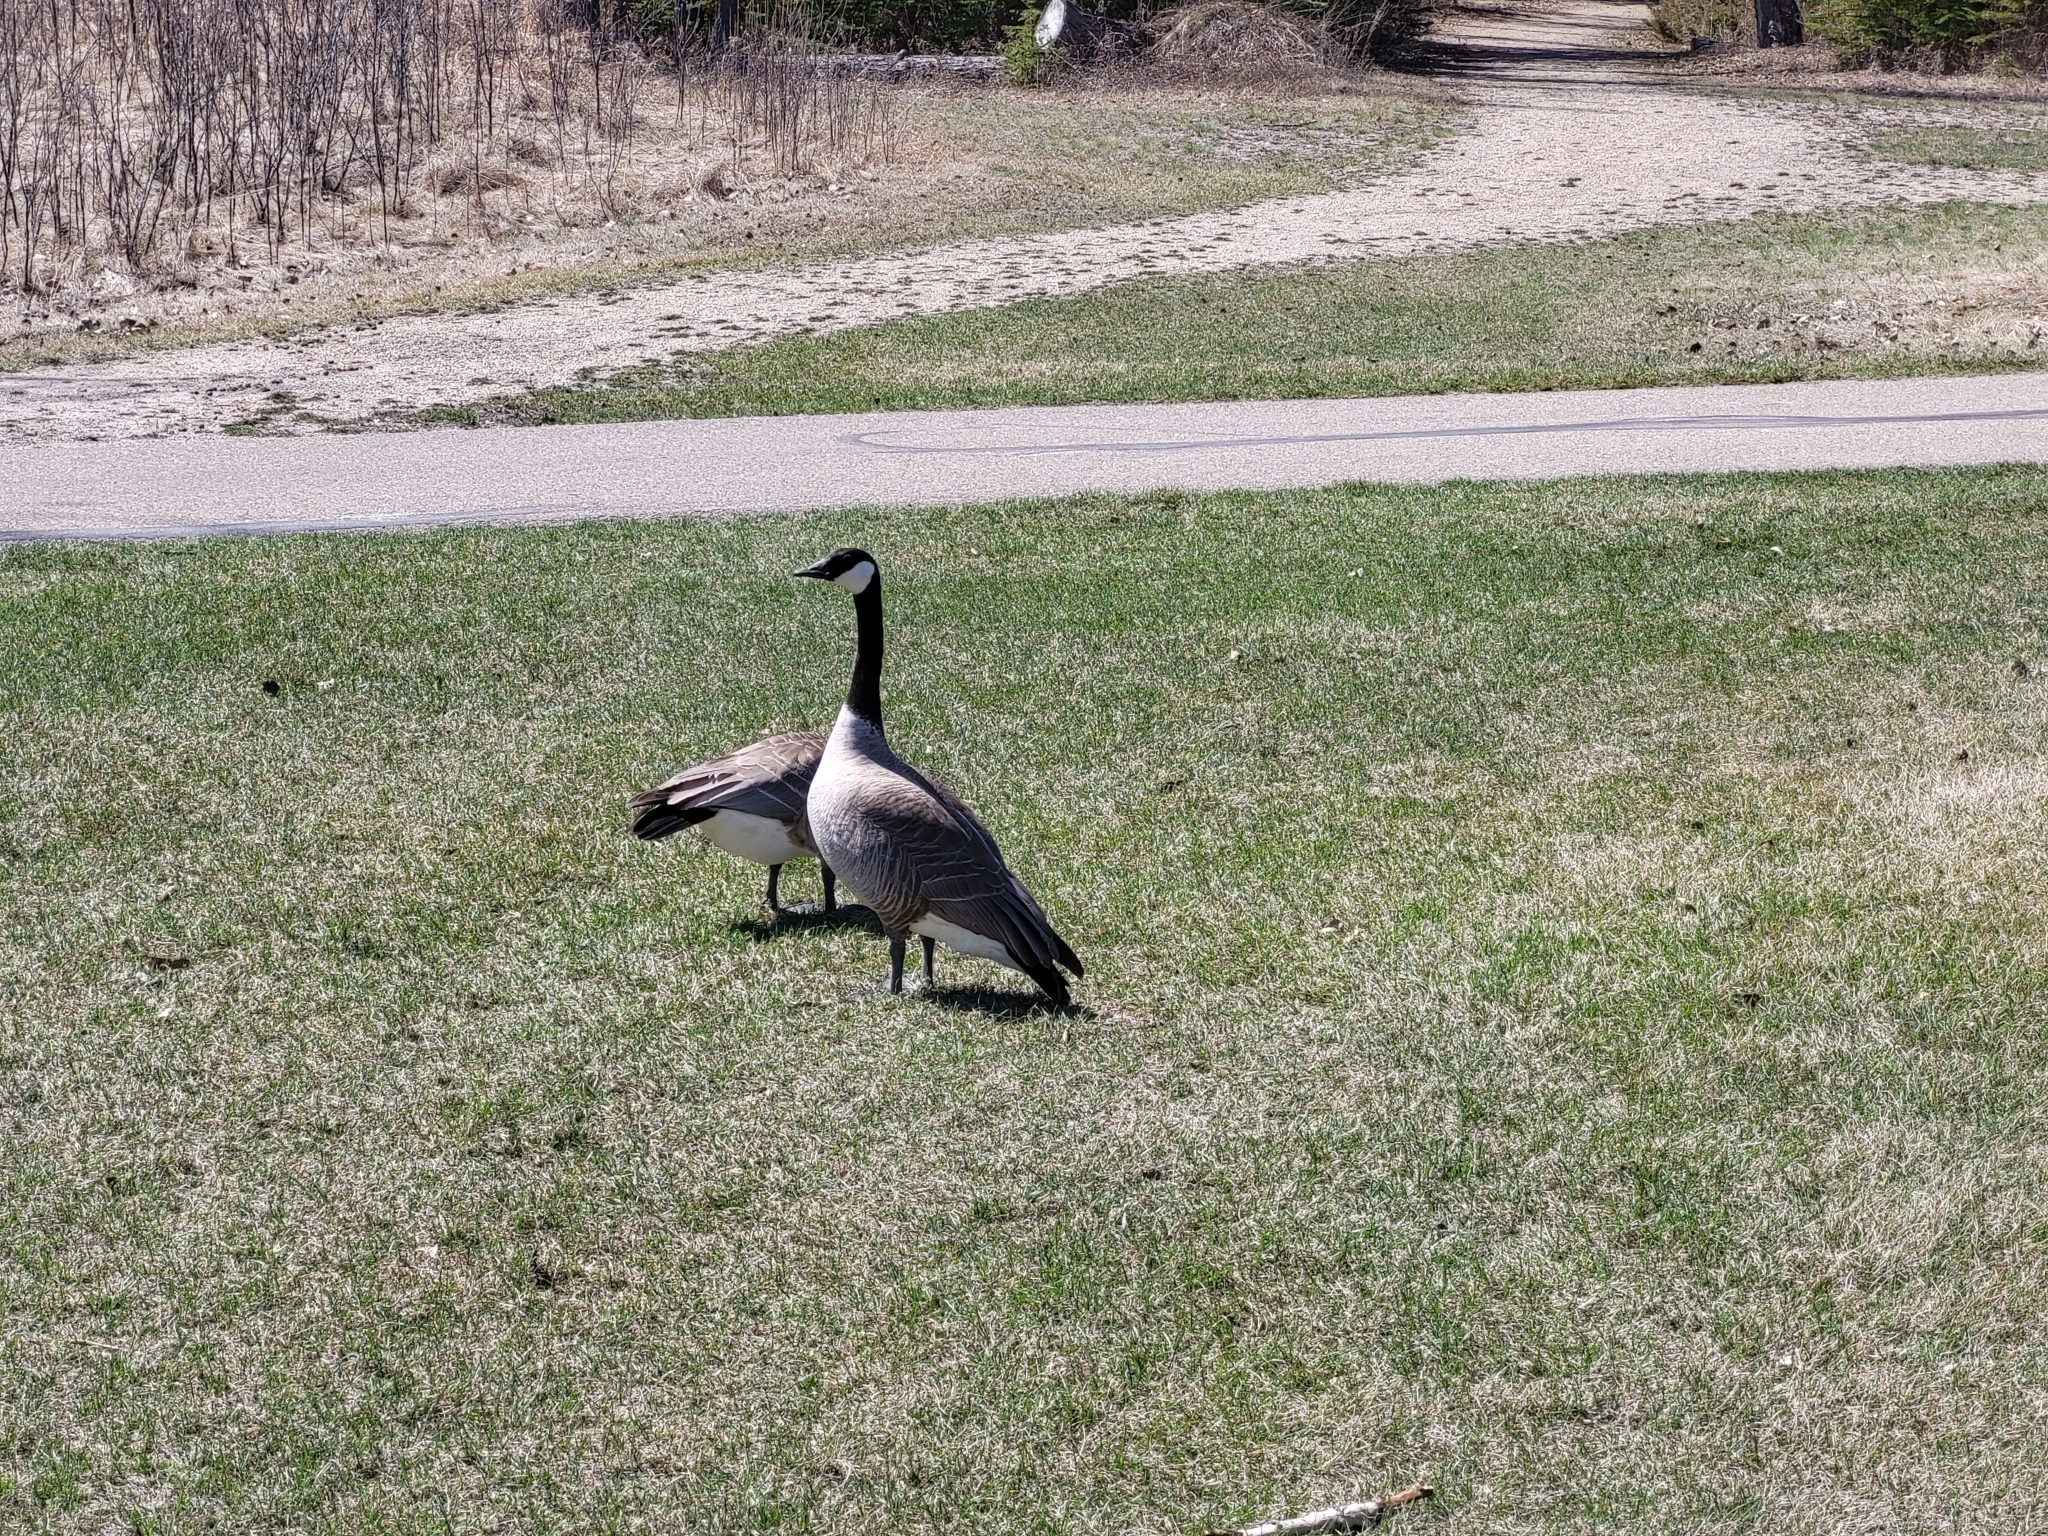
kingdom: Animalia
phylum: Chordata
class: Aves
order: Anseriformes
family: Anatidae
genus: Branta
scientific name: Branta canadensis
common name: Canada goose
